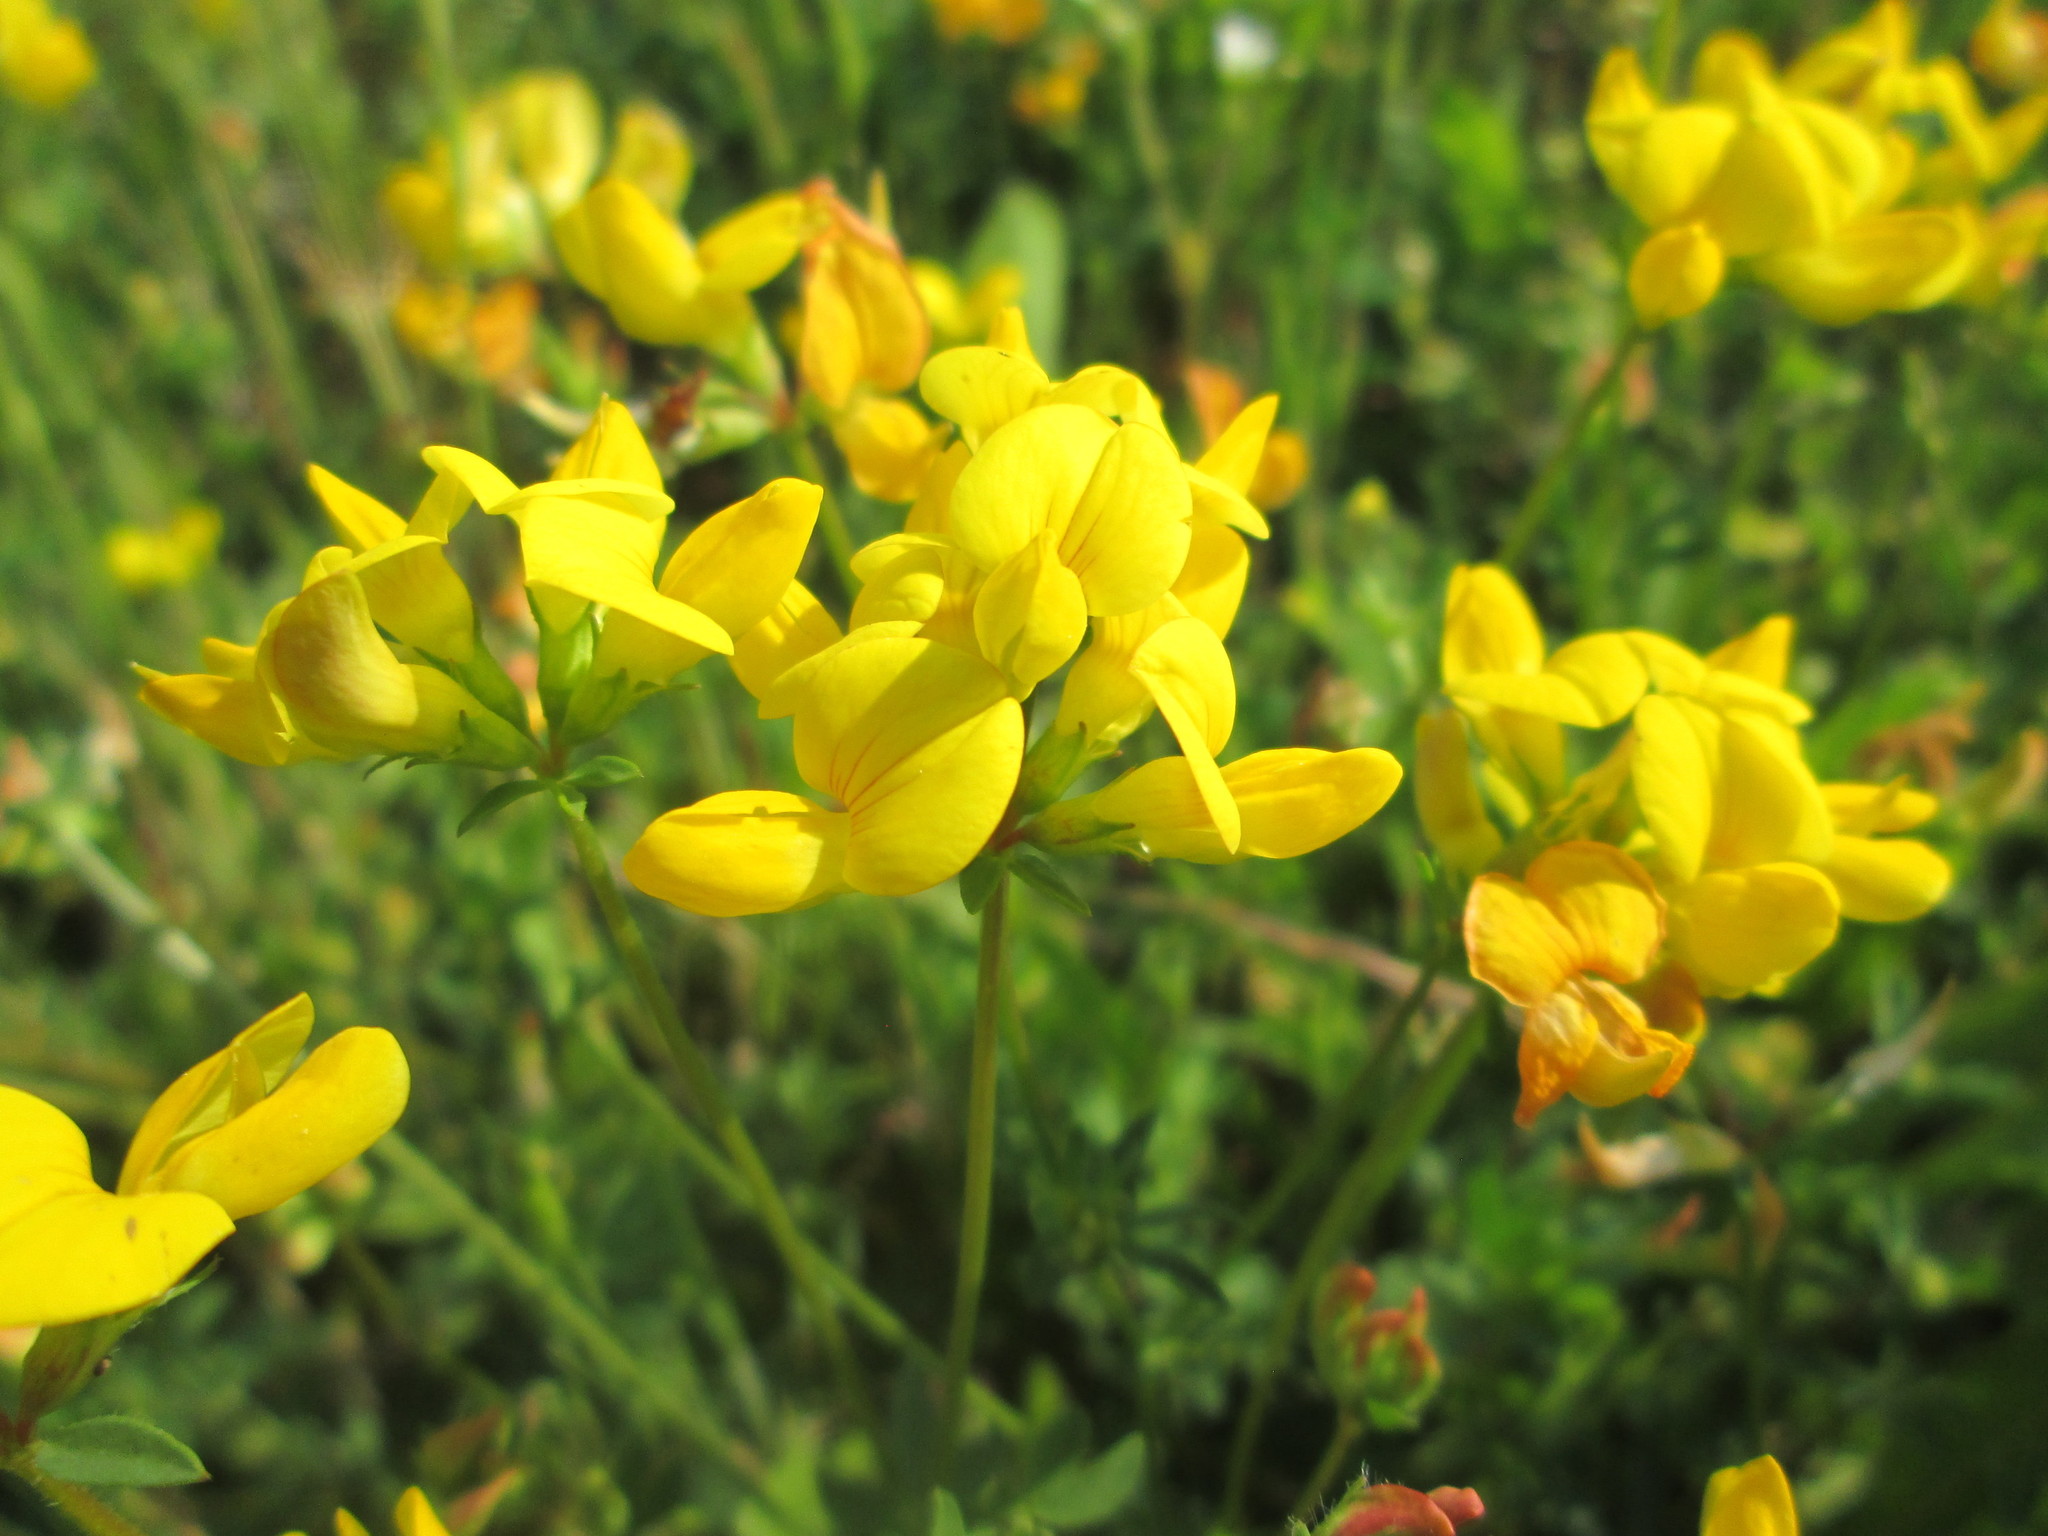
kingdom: Plantae
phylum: Tracheophyta
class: Magnoliopsida
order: Fabales
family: Fabaceae
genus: Lotus
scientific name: Lotus corniculatus
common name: Common bird's-foot-trefoil
